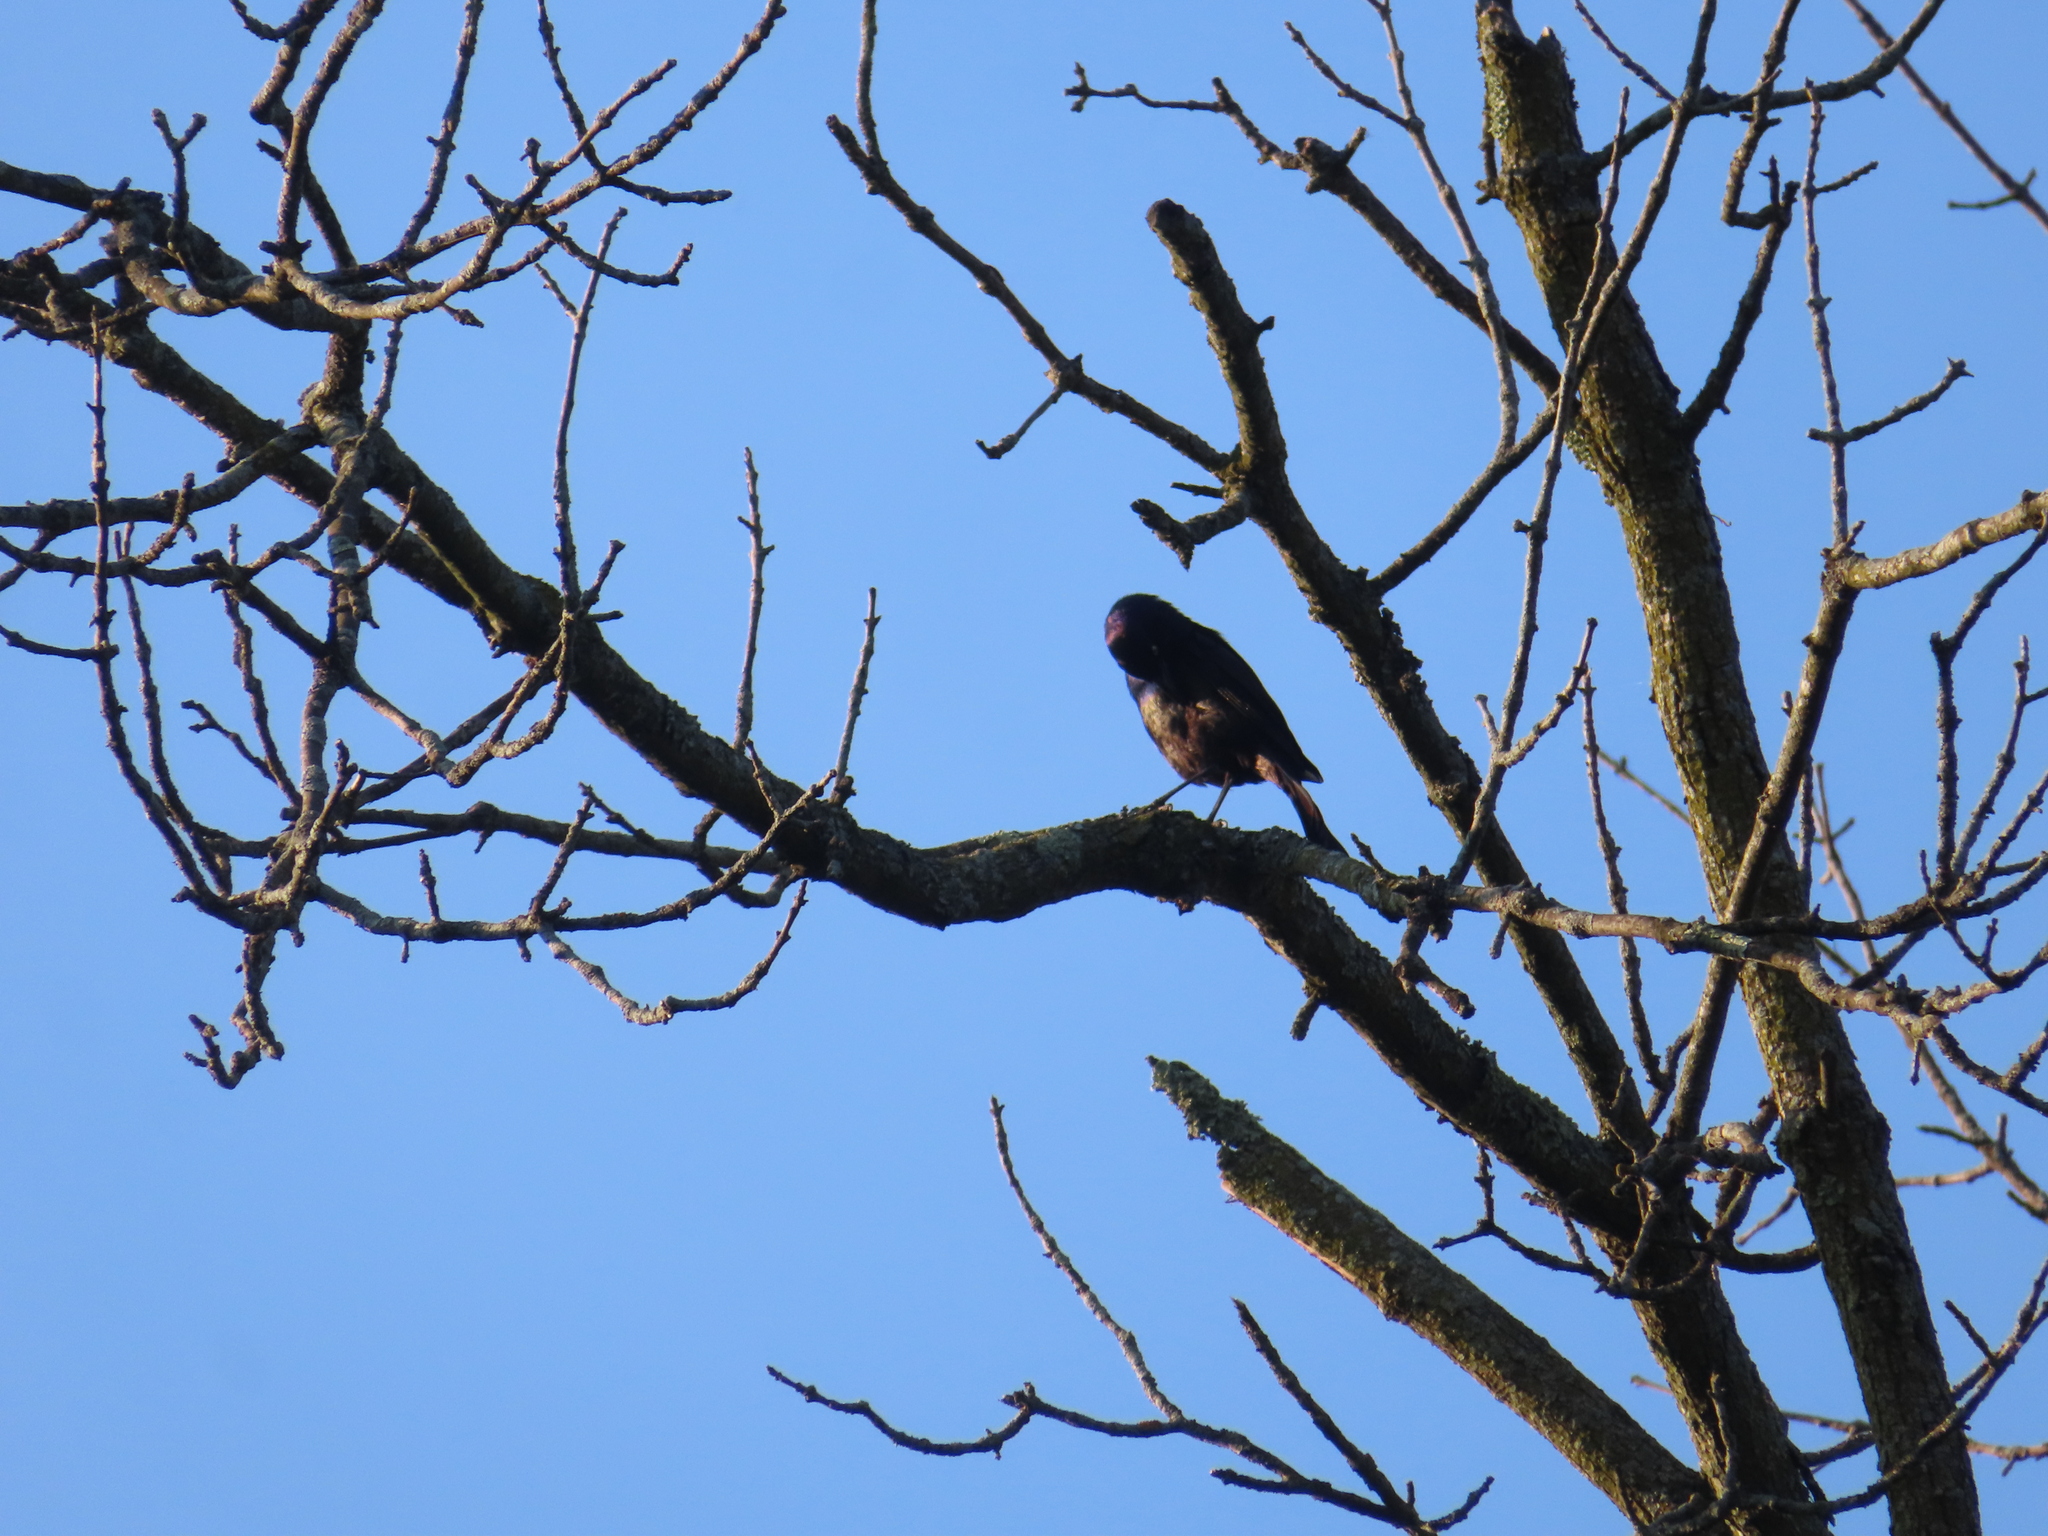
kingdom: Animalia
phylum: Chordata
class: Aves
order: Passeriformes
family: Icteridae
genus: Quiscalus
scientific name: Quiscalus quiscula
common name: Common grackle
